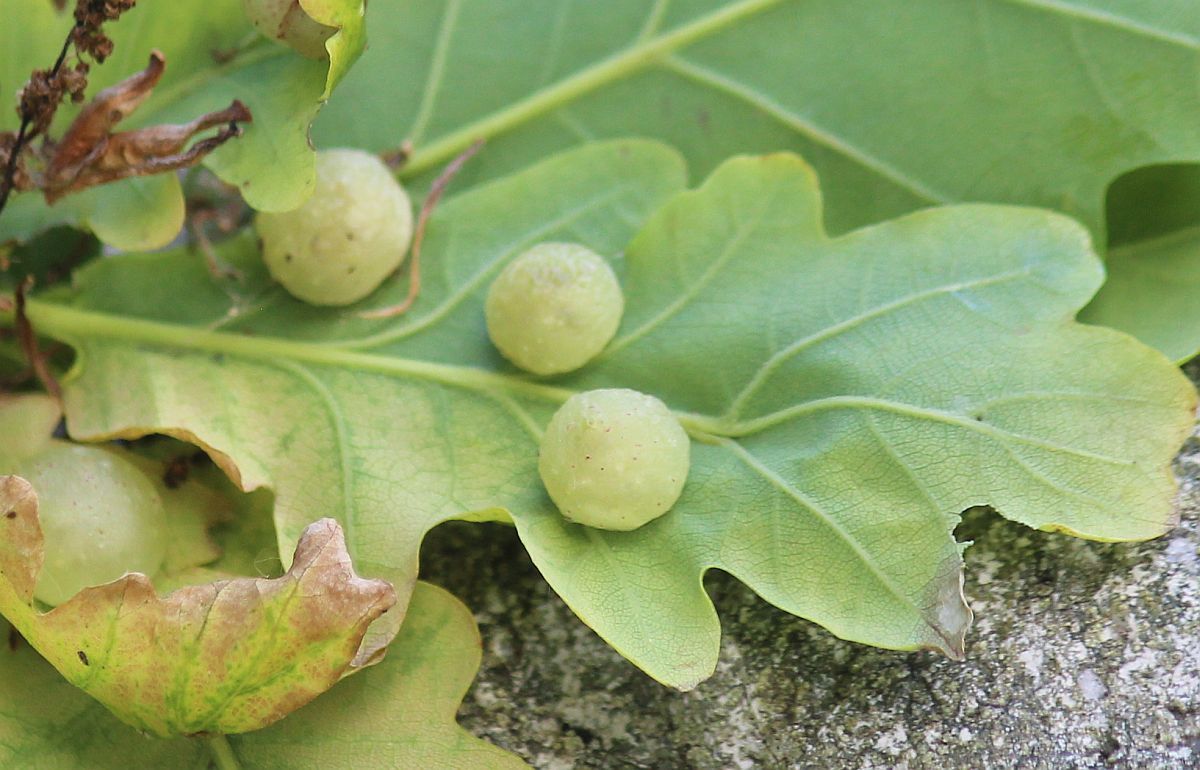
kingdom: Animalia
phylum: Arthropoda
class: Insecta
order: Hymenoptera
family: Cynipidae
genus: Cynips
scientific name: Cynips quercusfolii
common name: Cherry gall
